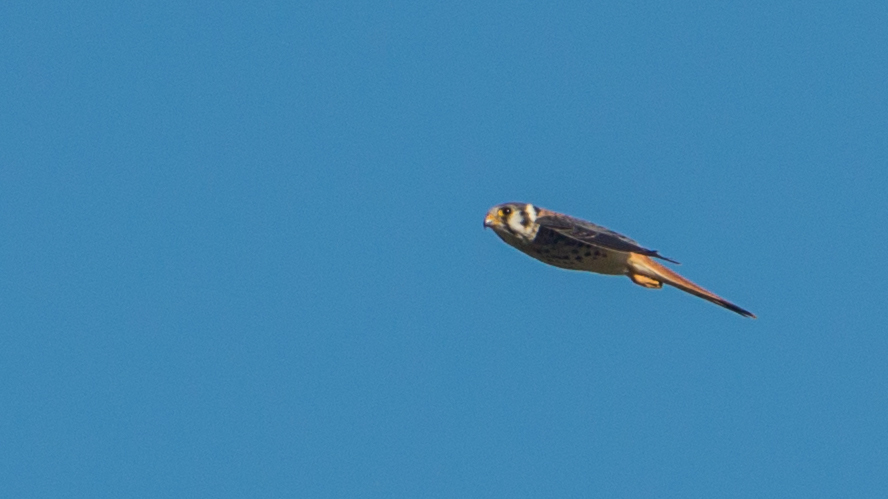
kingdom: Animalia
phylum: Chordata
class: Aves
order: Falconiformes
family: Falconidae
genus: Falco
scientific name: Falco sparverius
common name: American kestrel
